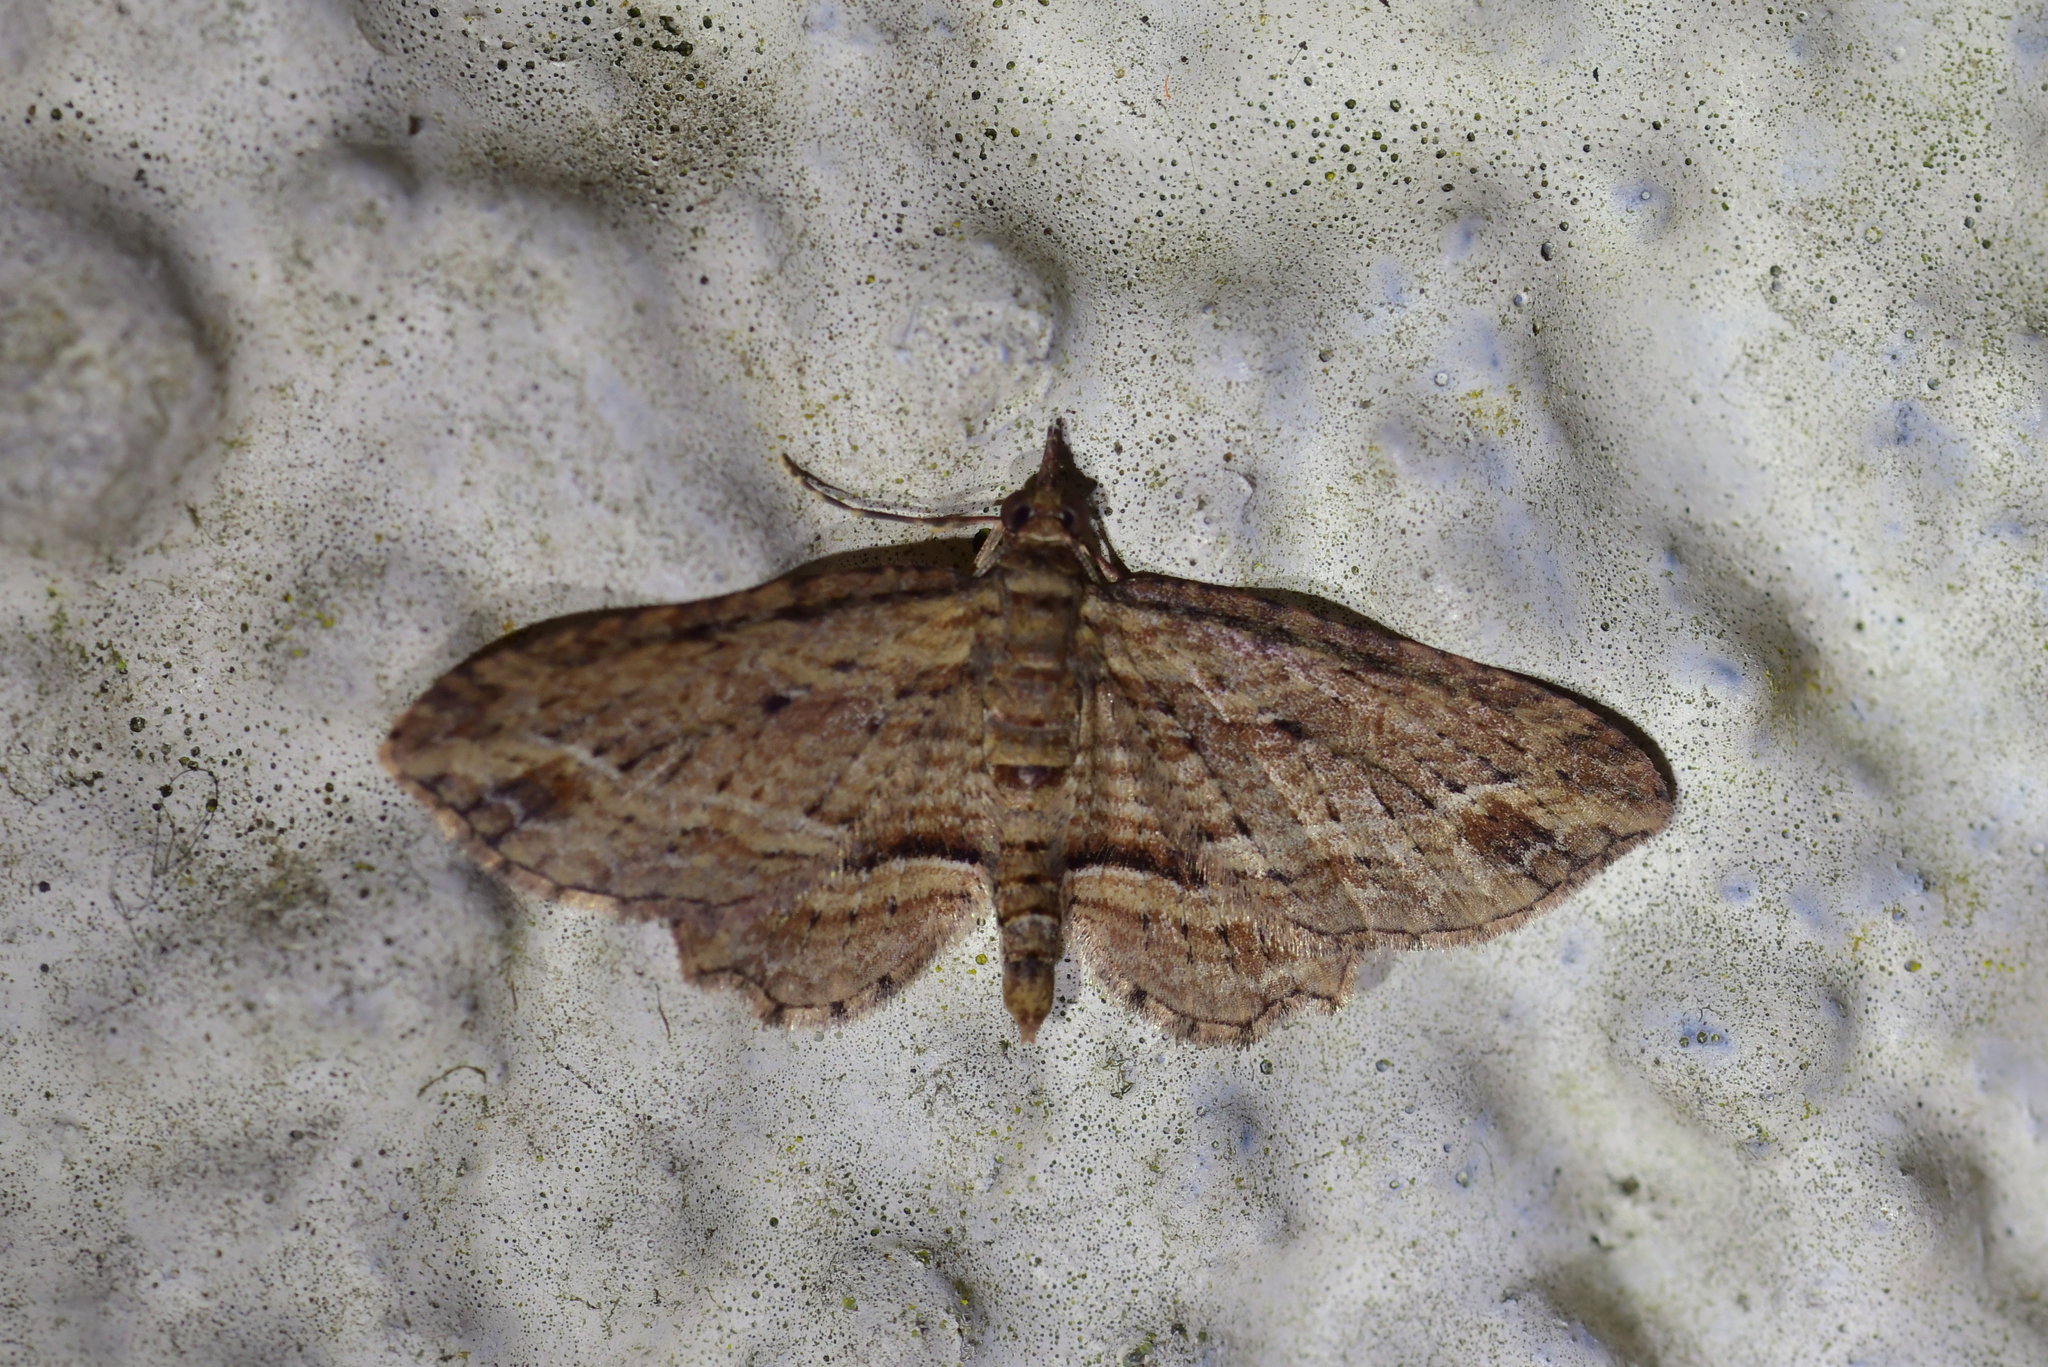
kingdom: Animalia
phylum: Arthropoda
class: Insecta
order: Lepidoptera
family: Geometridae
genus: Chloroclystis
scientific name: Chloroclystis filata
